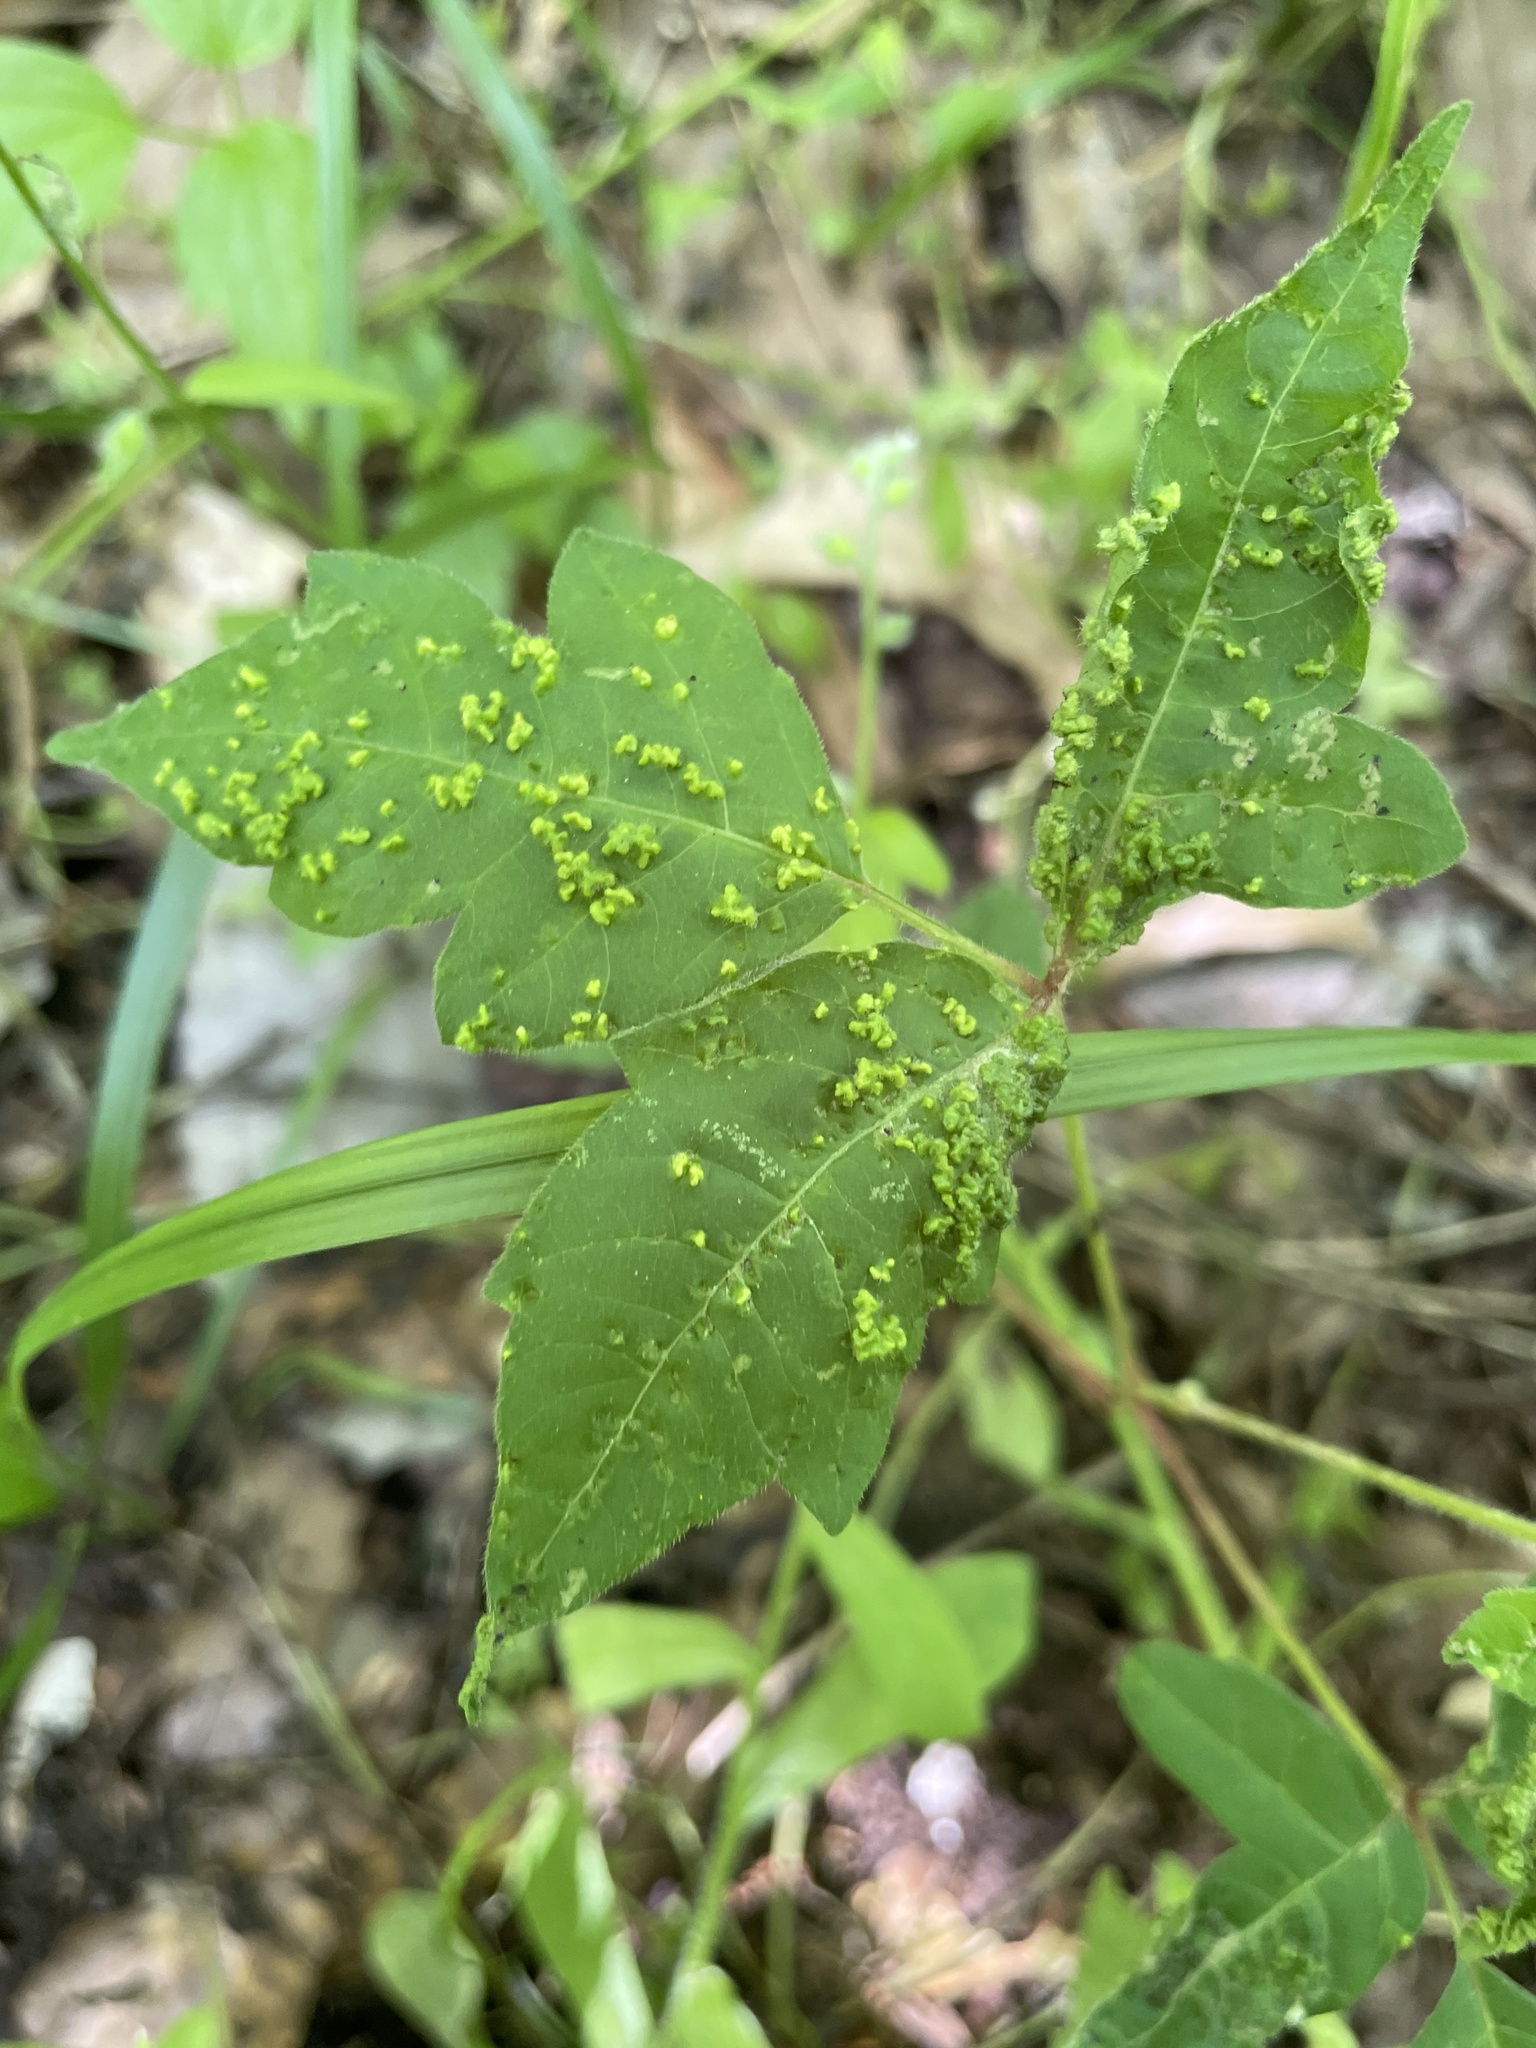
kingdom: Animalia
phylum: Arthropoda
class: Arachnida
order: Trombidiformes
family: Eriophyidae
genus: Aculops
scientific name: Aculops
